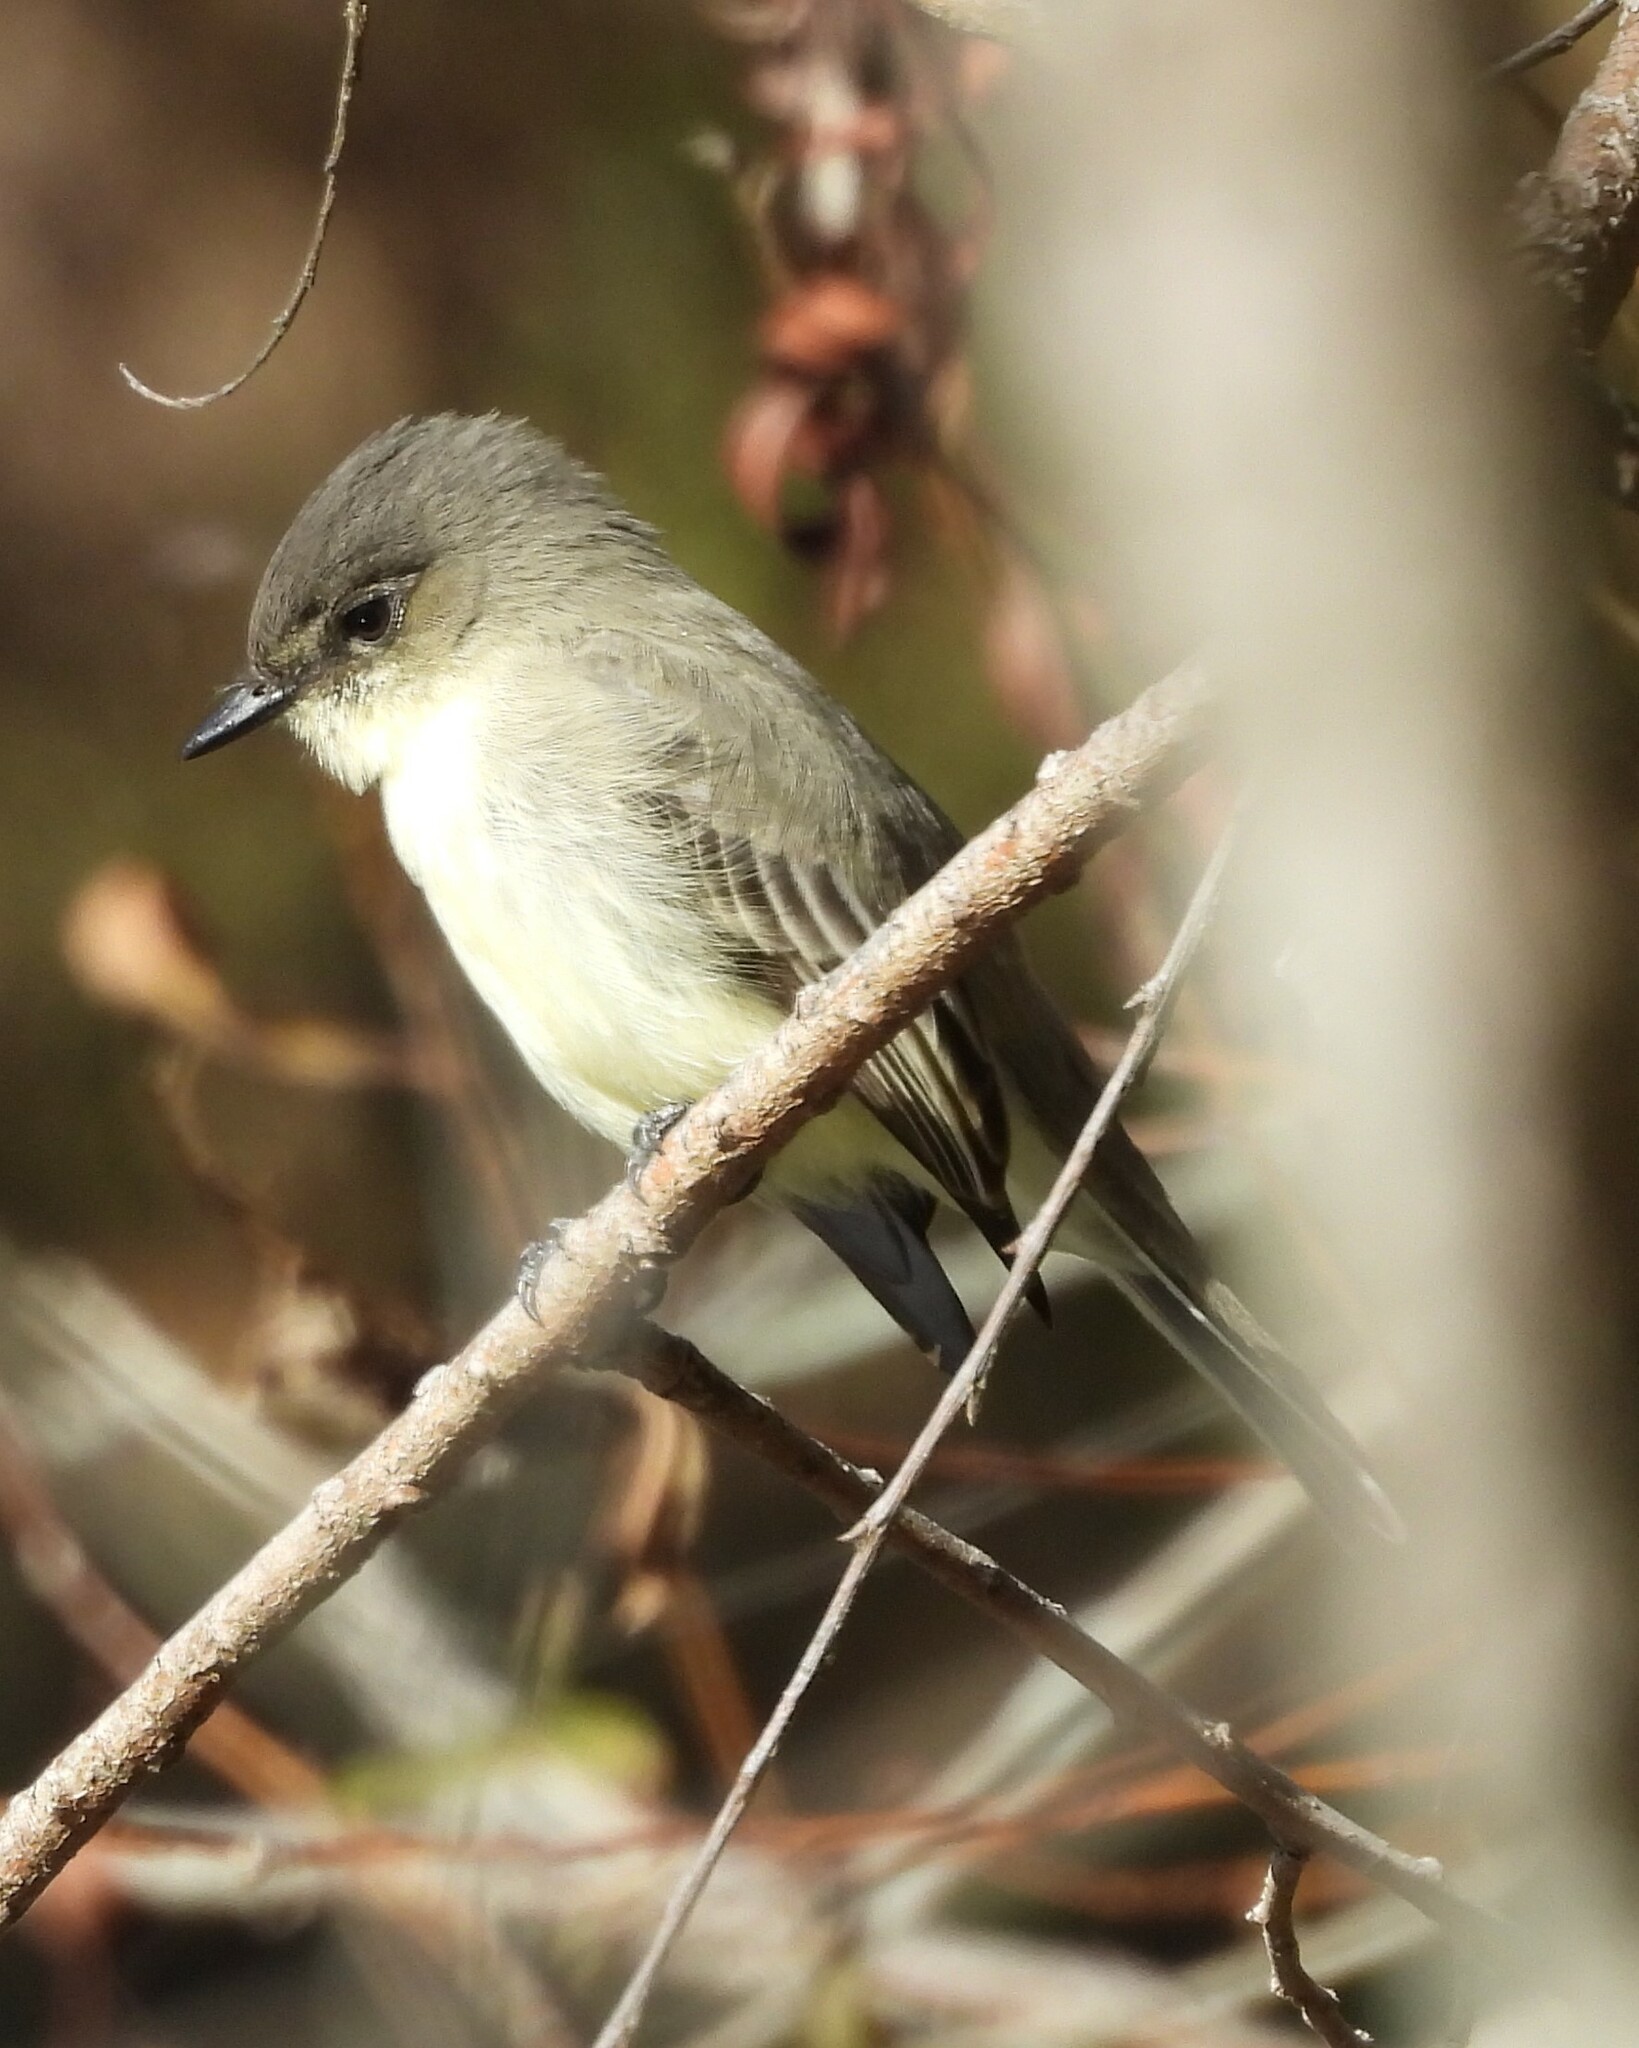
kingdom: Animalia
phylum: Chordata
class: Aves
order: Passeriformes
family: Tyrannidae
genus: Sayornis
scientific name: Sayornis phoebe
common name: Eastern phoebe
